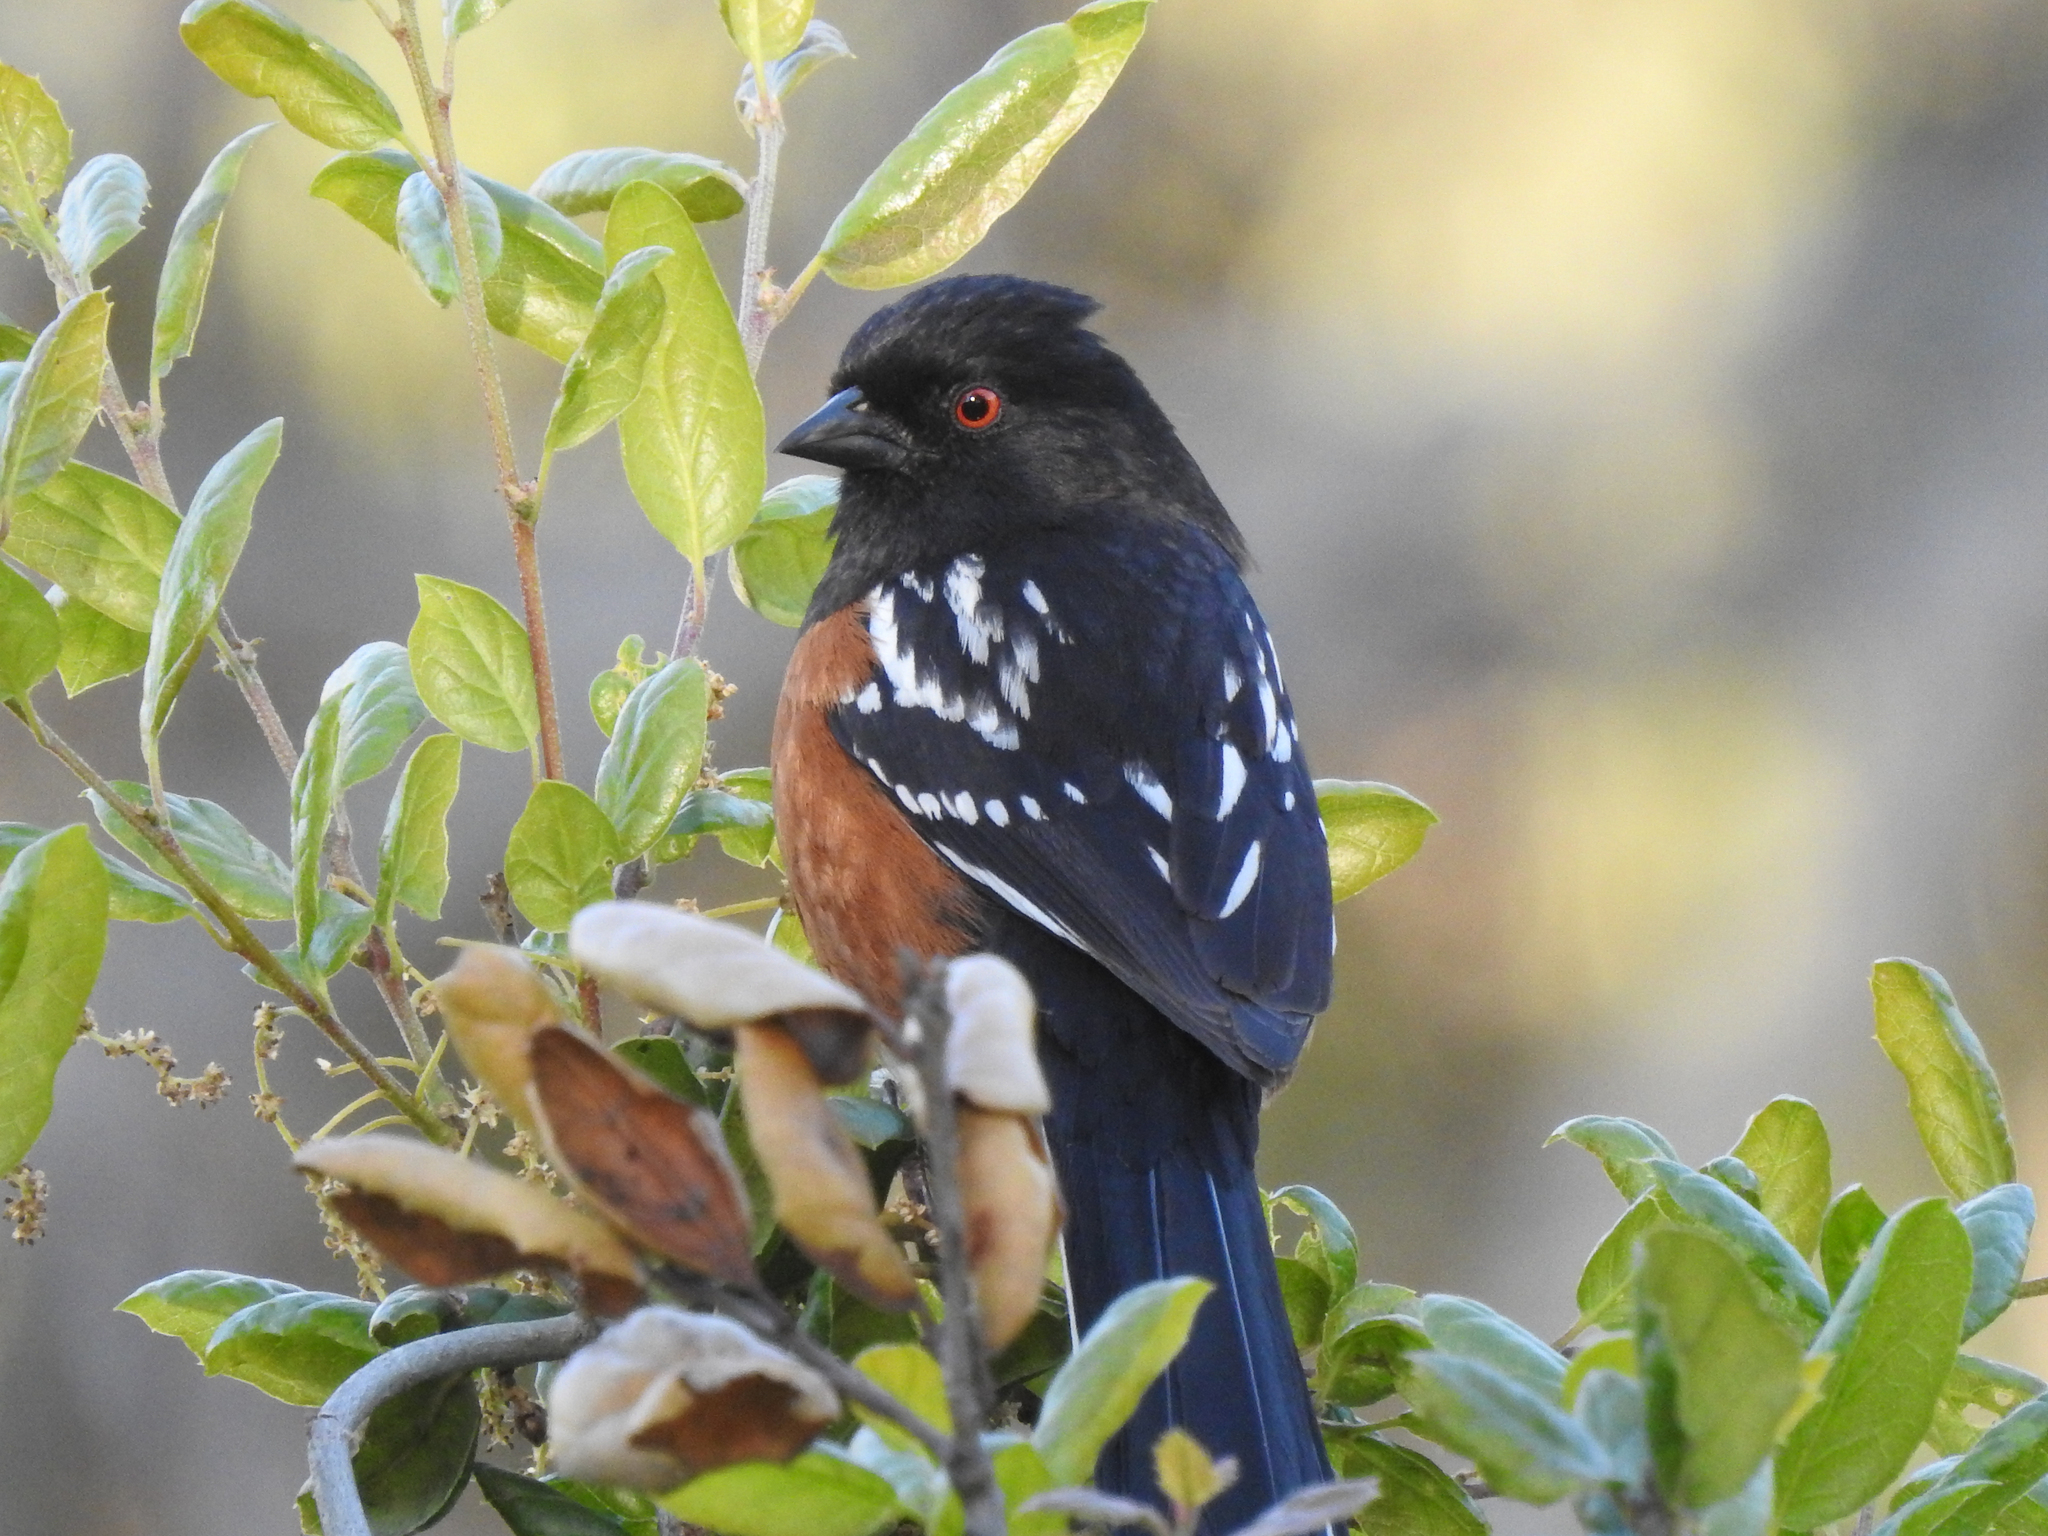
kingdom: Animalia
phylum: Chordata
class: Aves
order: Passeriformes
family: Passerellidae
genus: Pipilo
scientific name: Pipilo maculatus
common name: Spotted towhee
